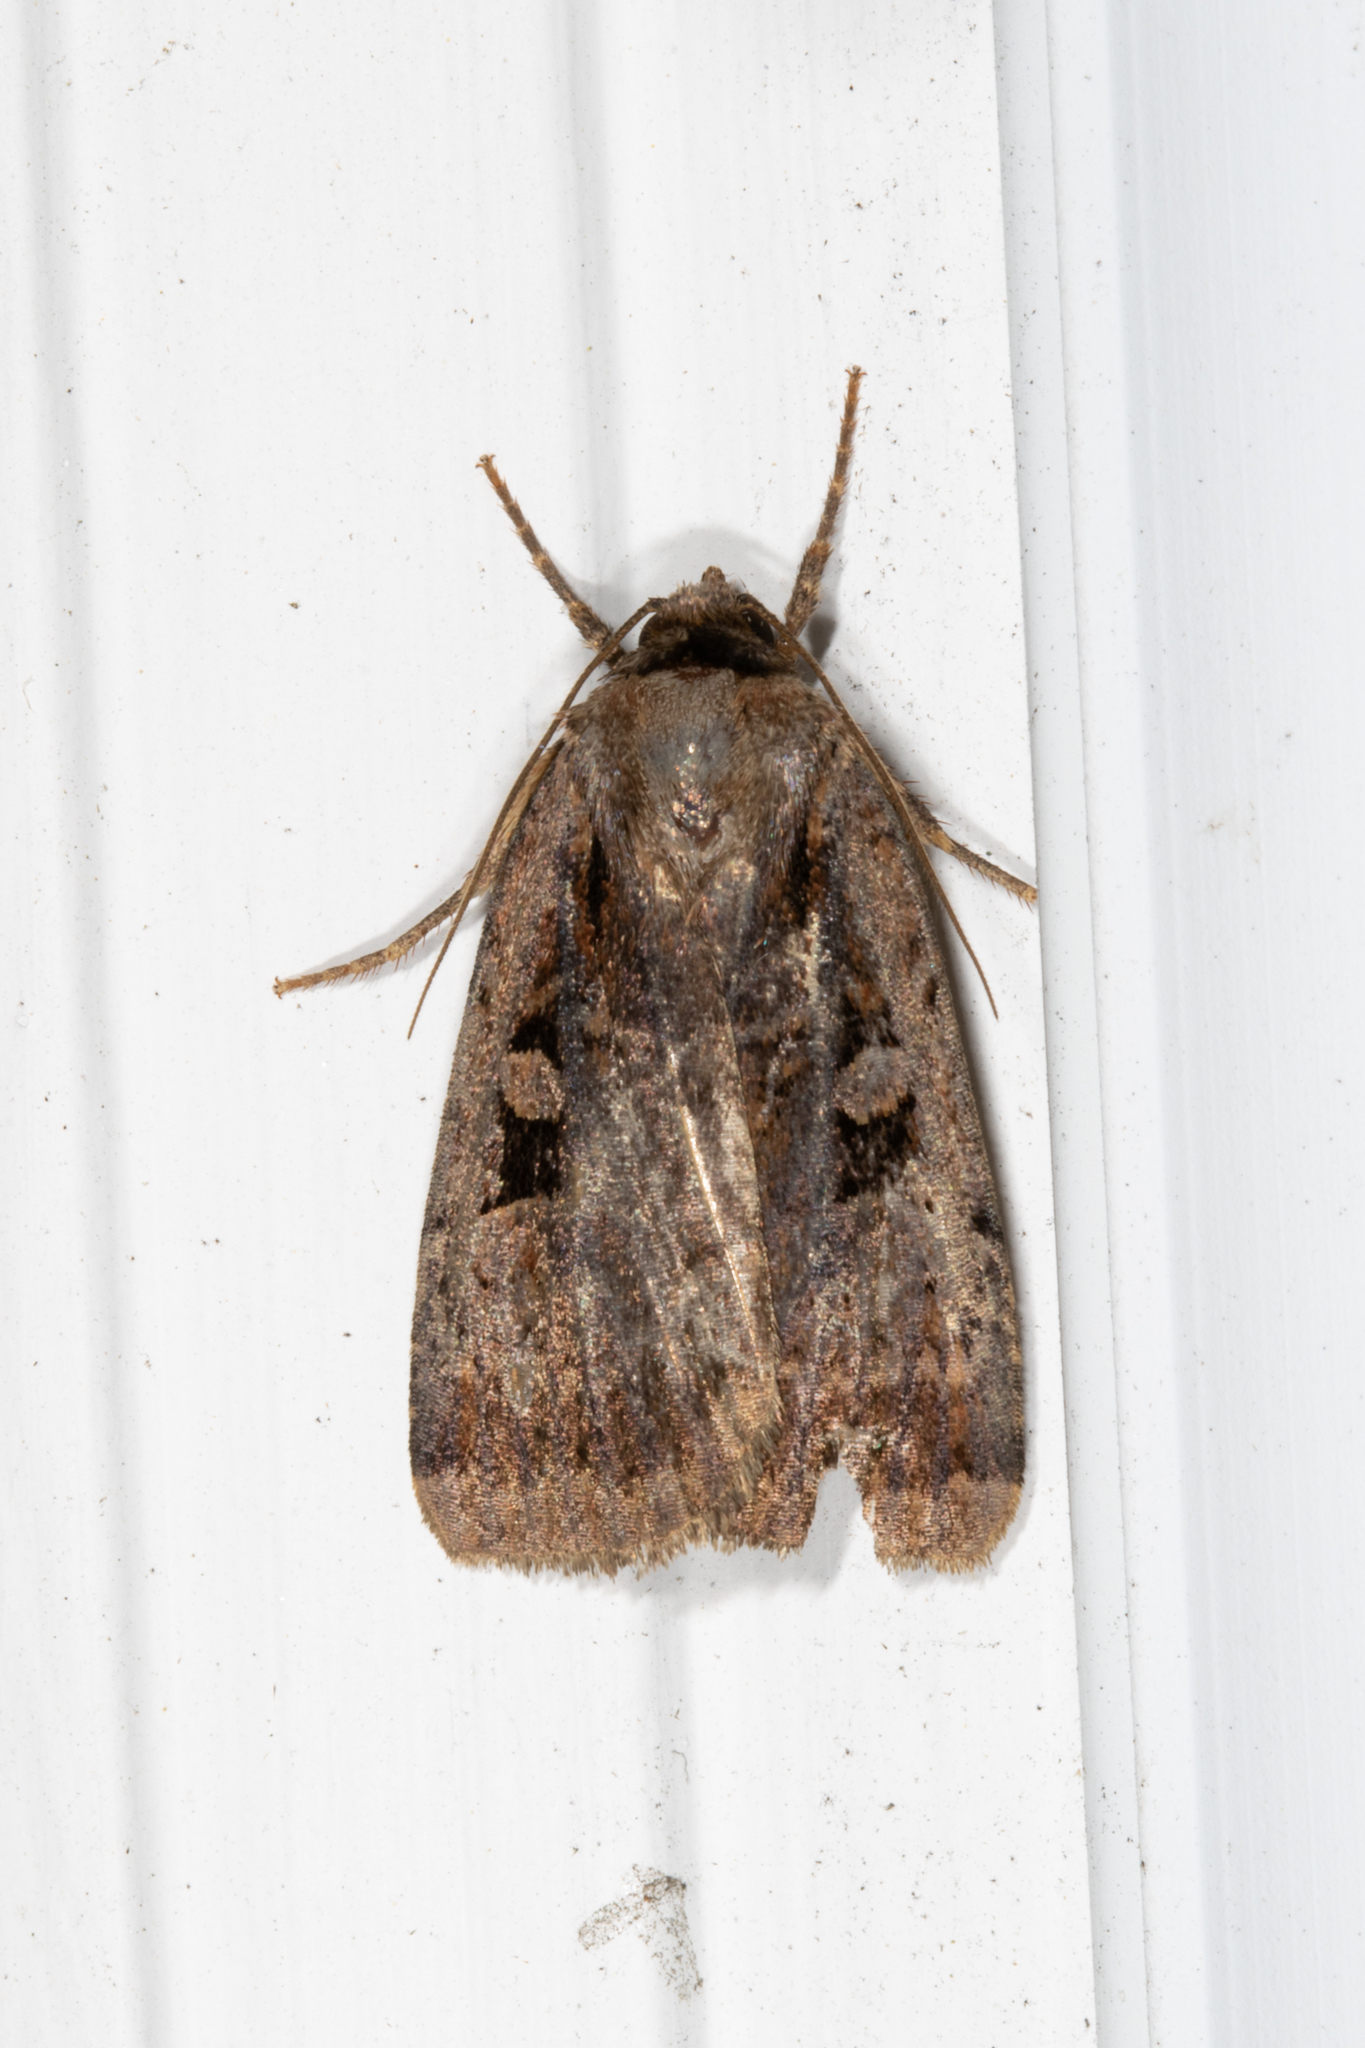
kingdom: Animalia
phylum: Arthropoda
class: Insecta
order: Lepidoptera
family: Noctuidae
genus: Eueretagrotis
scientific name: Eueretagrotis perattentus
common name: Two-spot dart moth
